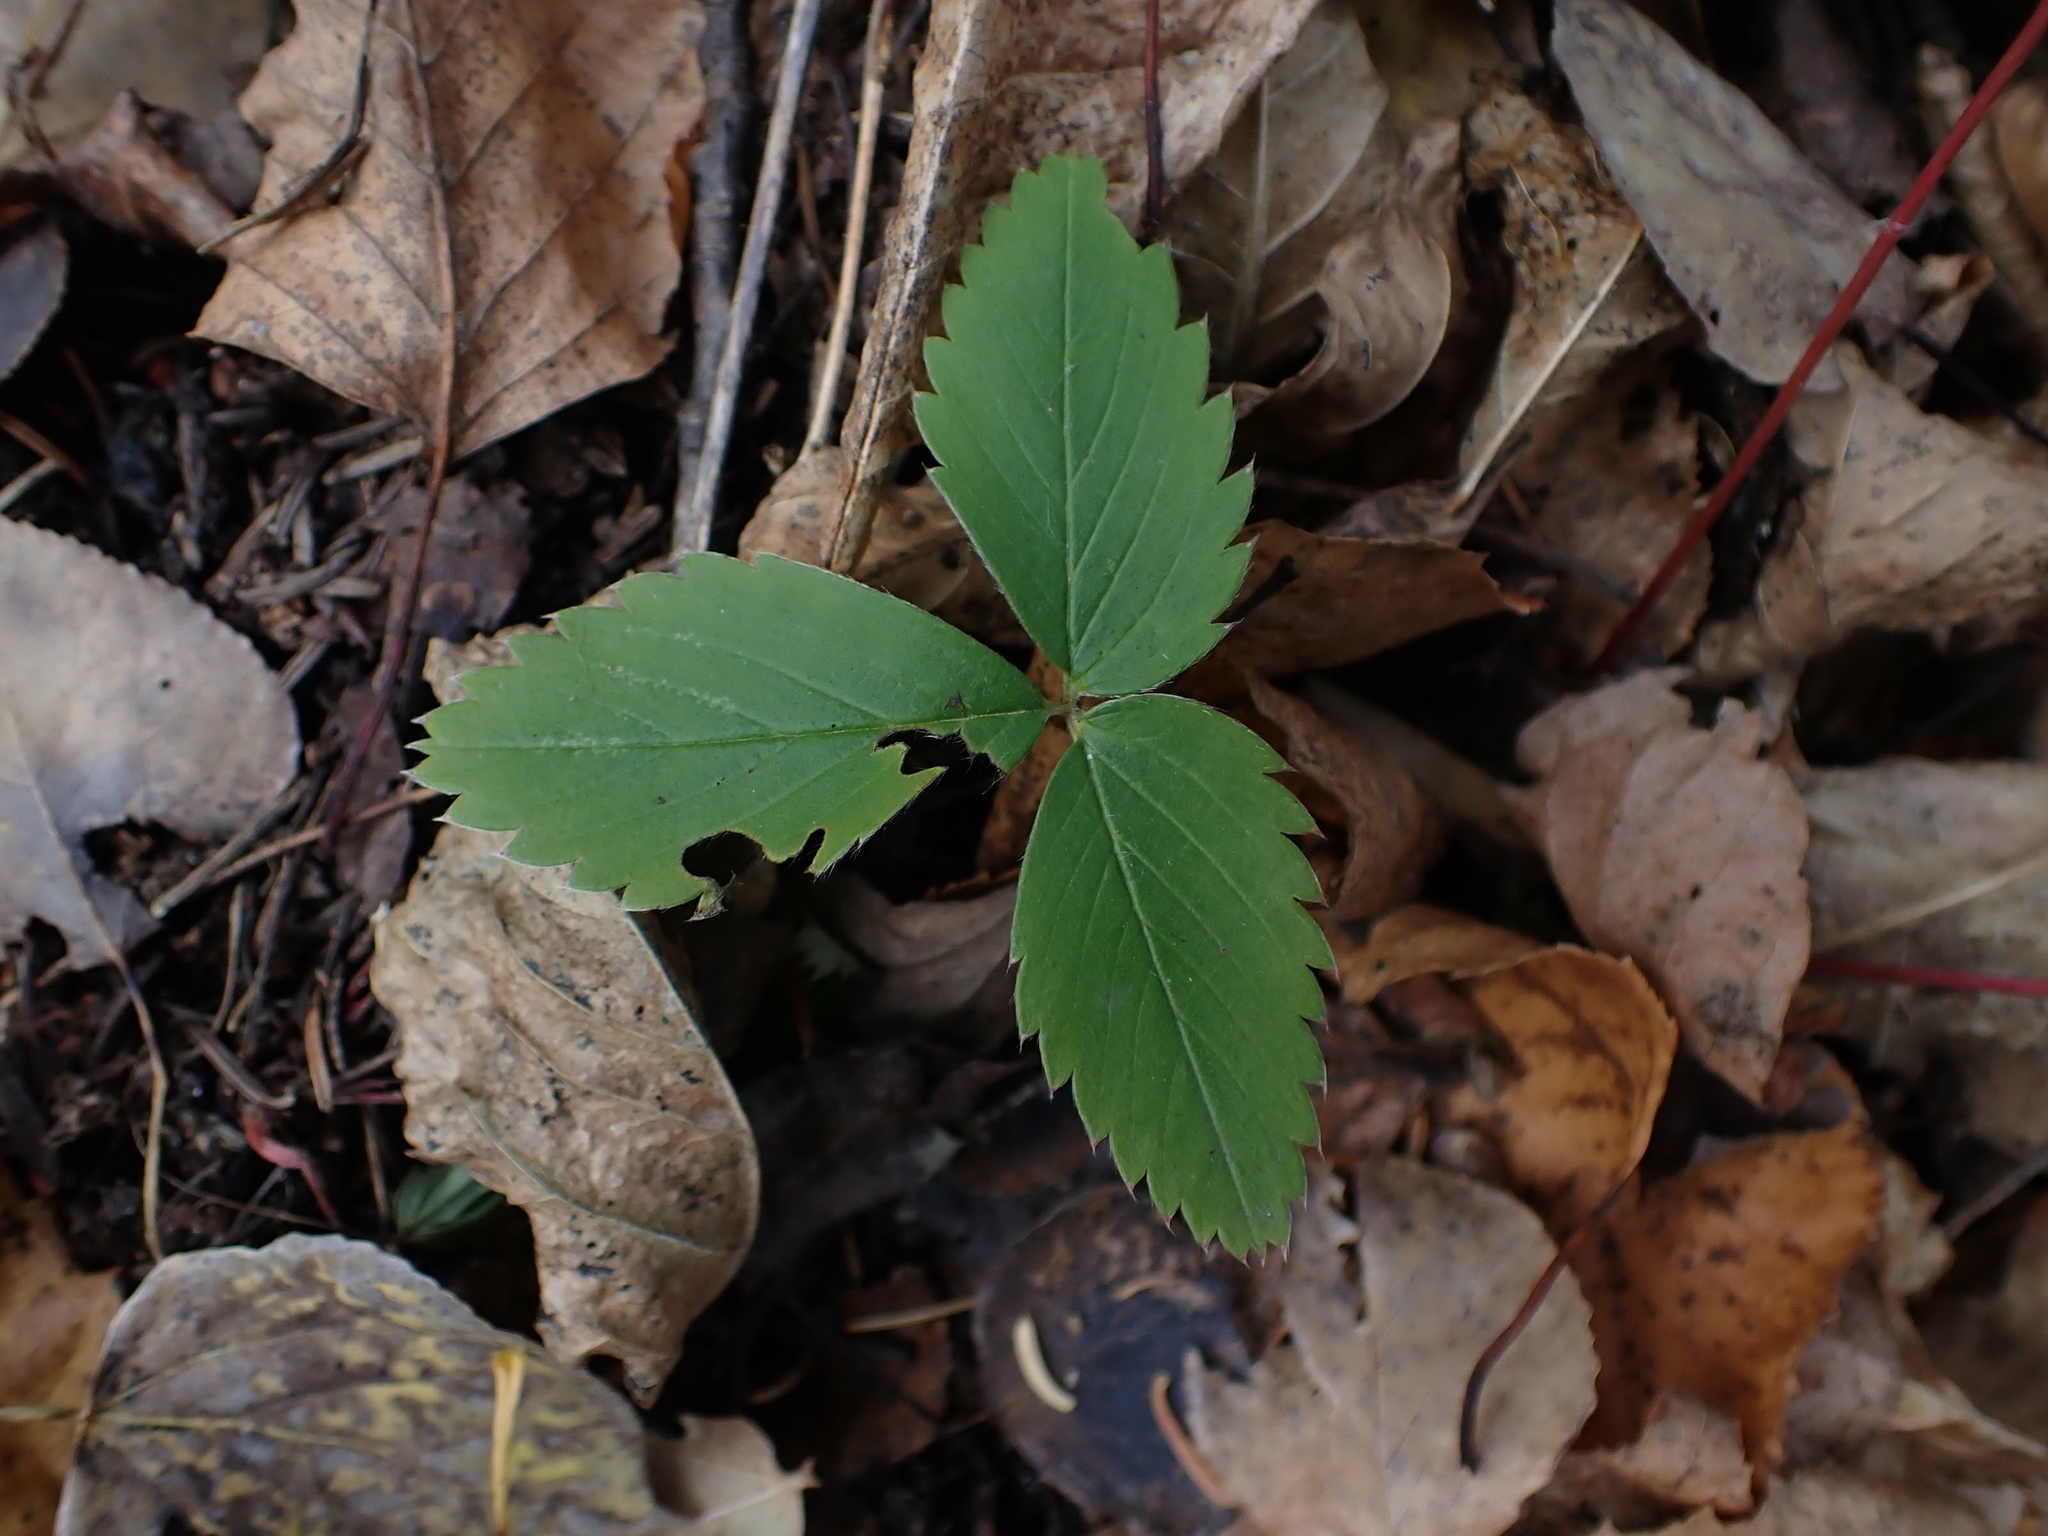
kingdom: Plantae
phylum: Tracheophyta
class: Magnoliopsida
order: Rosales
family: Rosaceae
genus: Fragaria
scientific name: Fragaria virginiana
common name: Thickleaved wild strawberry
